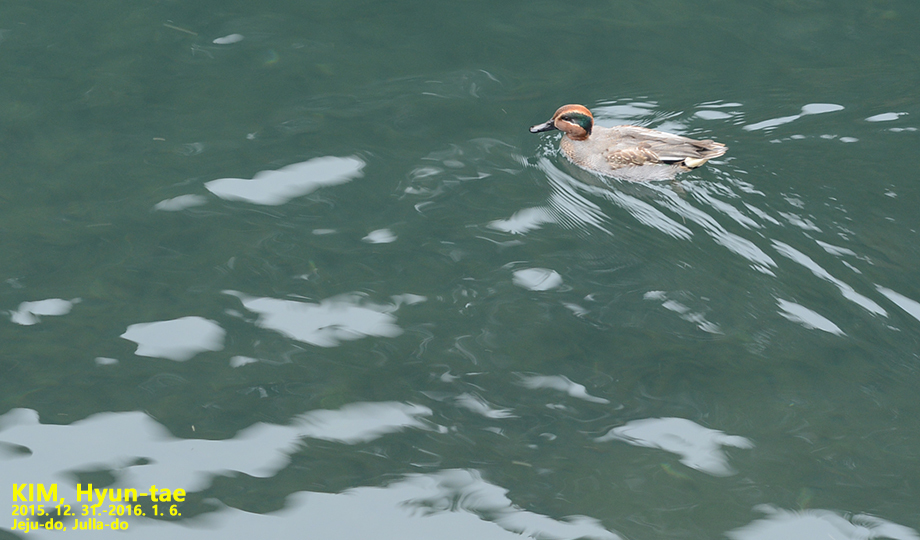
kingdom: Animalia
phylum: Chordata
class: Aves
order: Anseriformes
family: Anatidae
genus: Anas
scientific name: Anas crecca
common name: Eurasian teal
